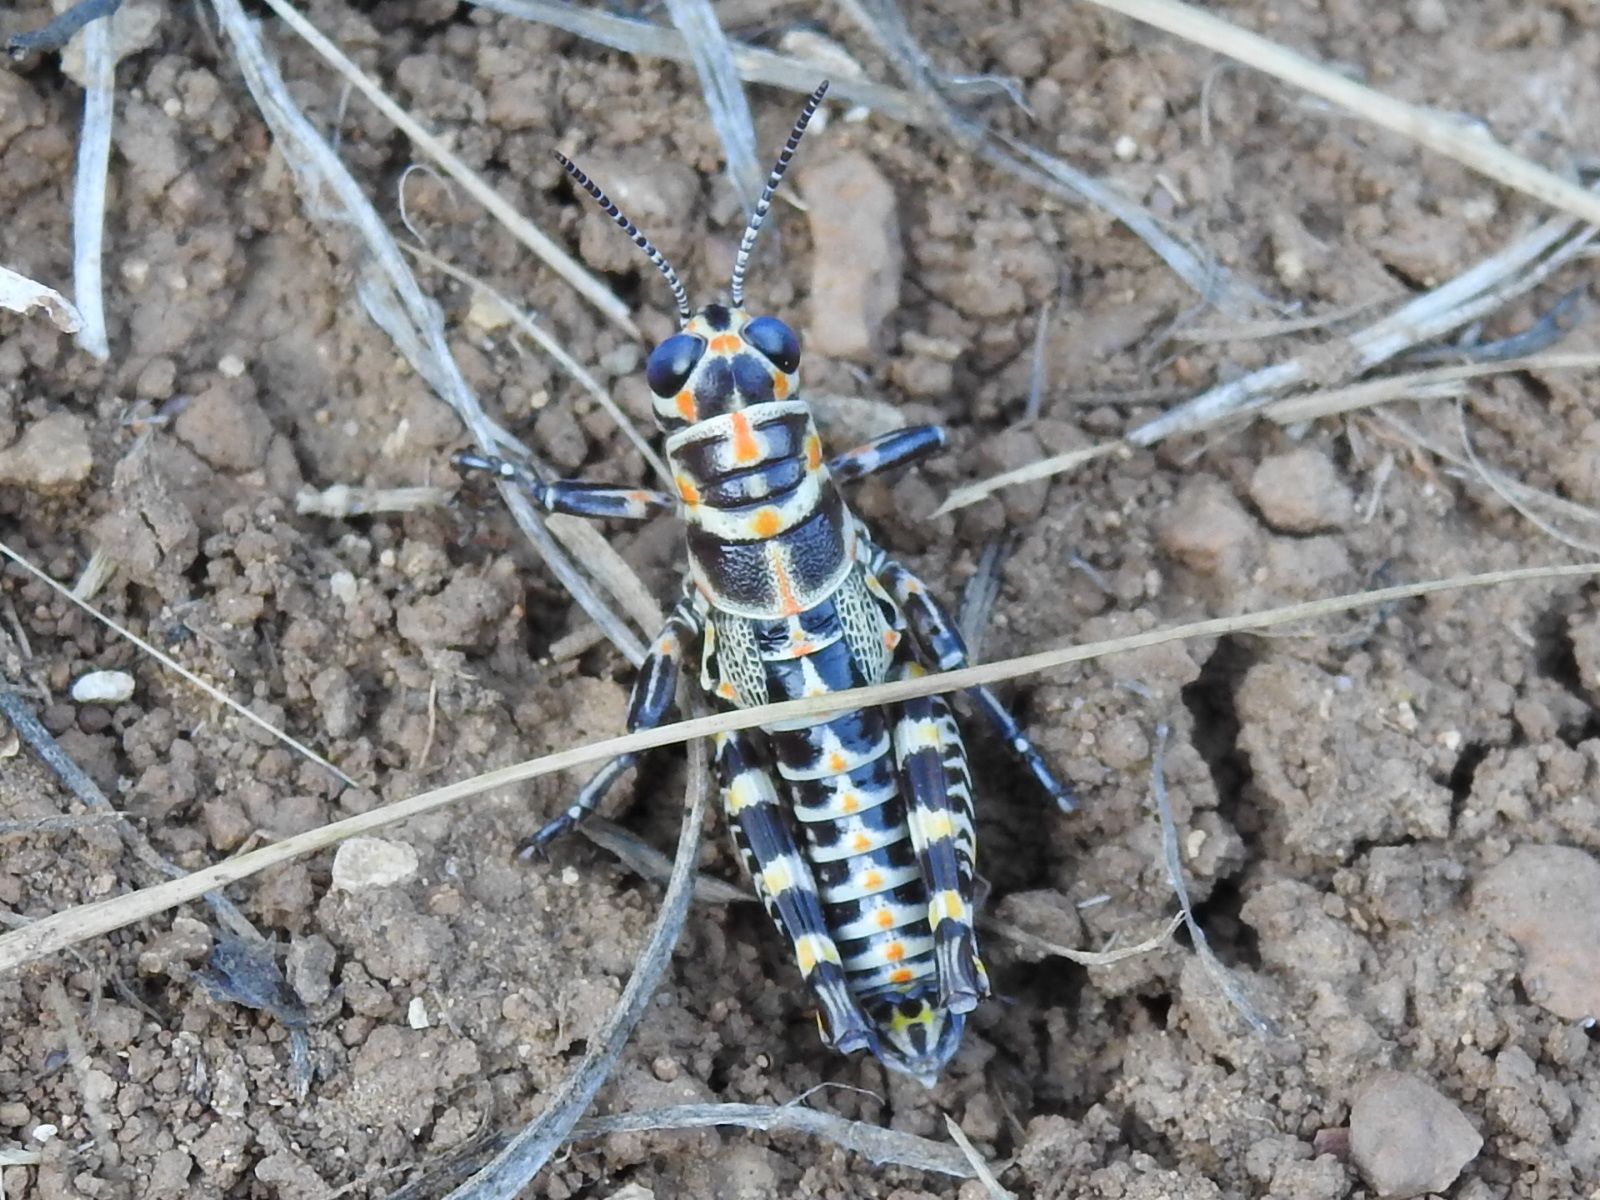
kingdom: Animalia
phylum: Arthropoda
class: Insecta
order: Orthoptera
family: Acrididae
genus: Dactylotum
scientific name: Dactylotum bicolor
